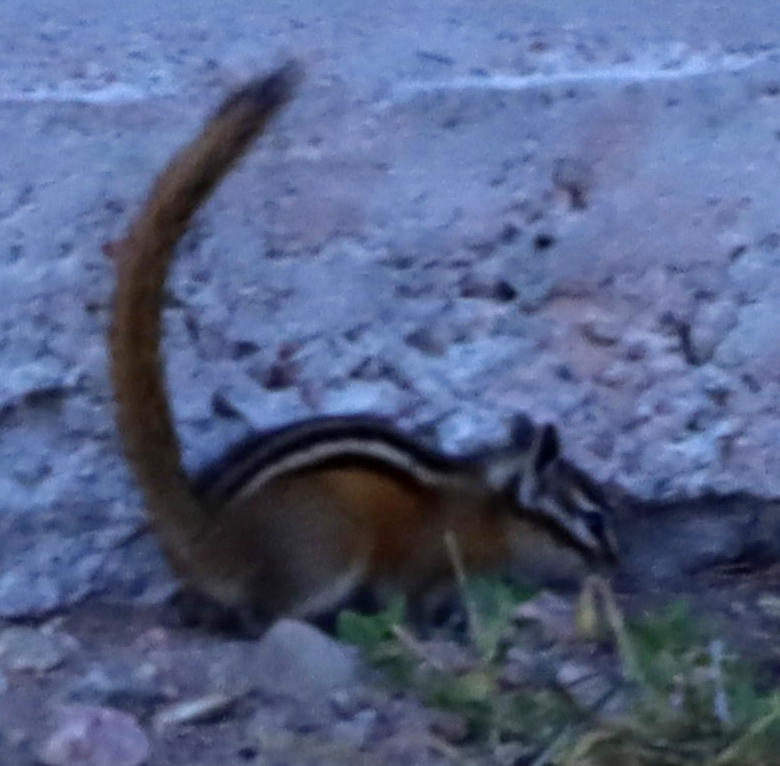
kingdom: Animalia
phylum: Chordata
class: Mammalia
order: Rodentia
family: Sciuridae
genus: Tamias
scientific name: Tamias minimus
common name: Least chipmunk
